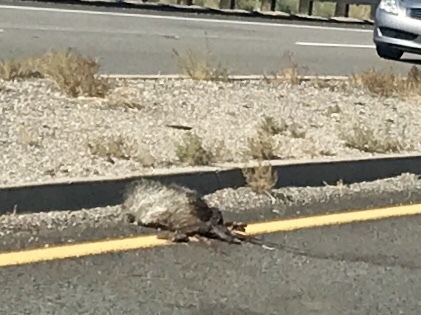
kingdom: Animalia
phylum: Chordata
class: Mammalia
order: Artiodactyla
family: Tayassuidae
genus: Pecari
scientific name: Pecari tajacu
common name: Collared peccary
